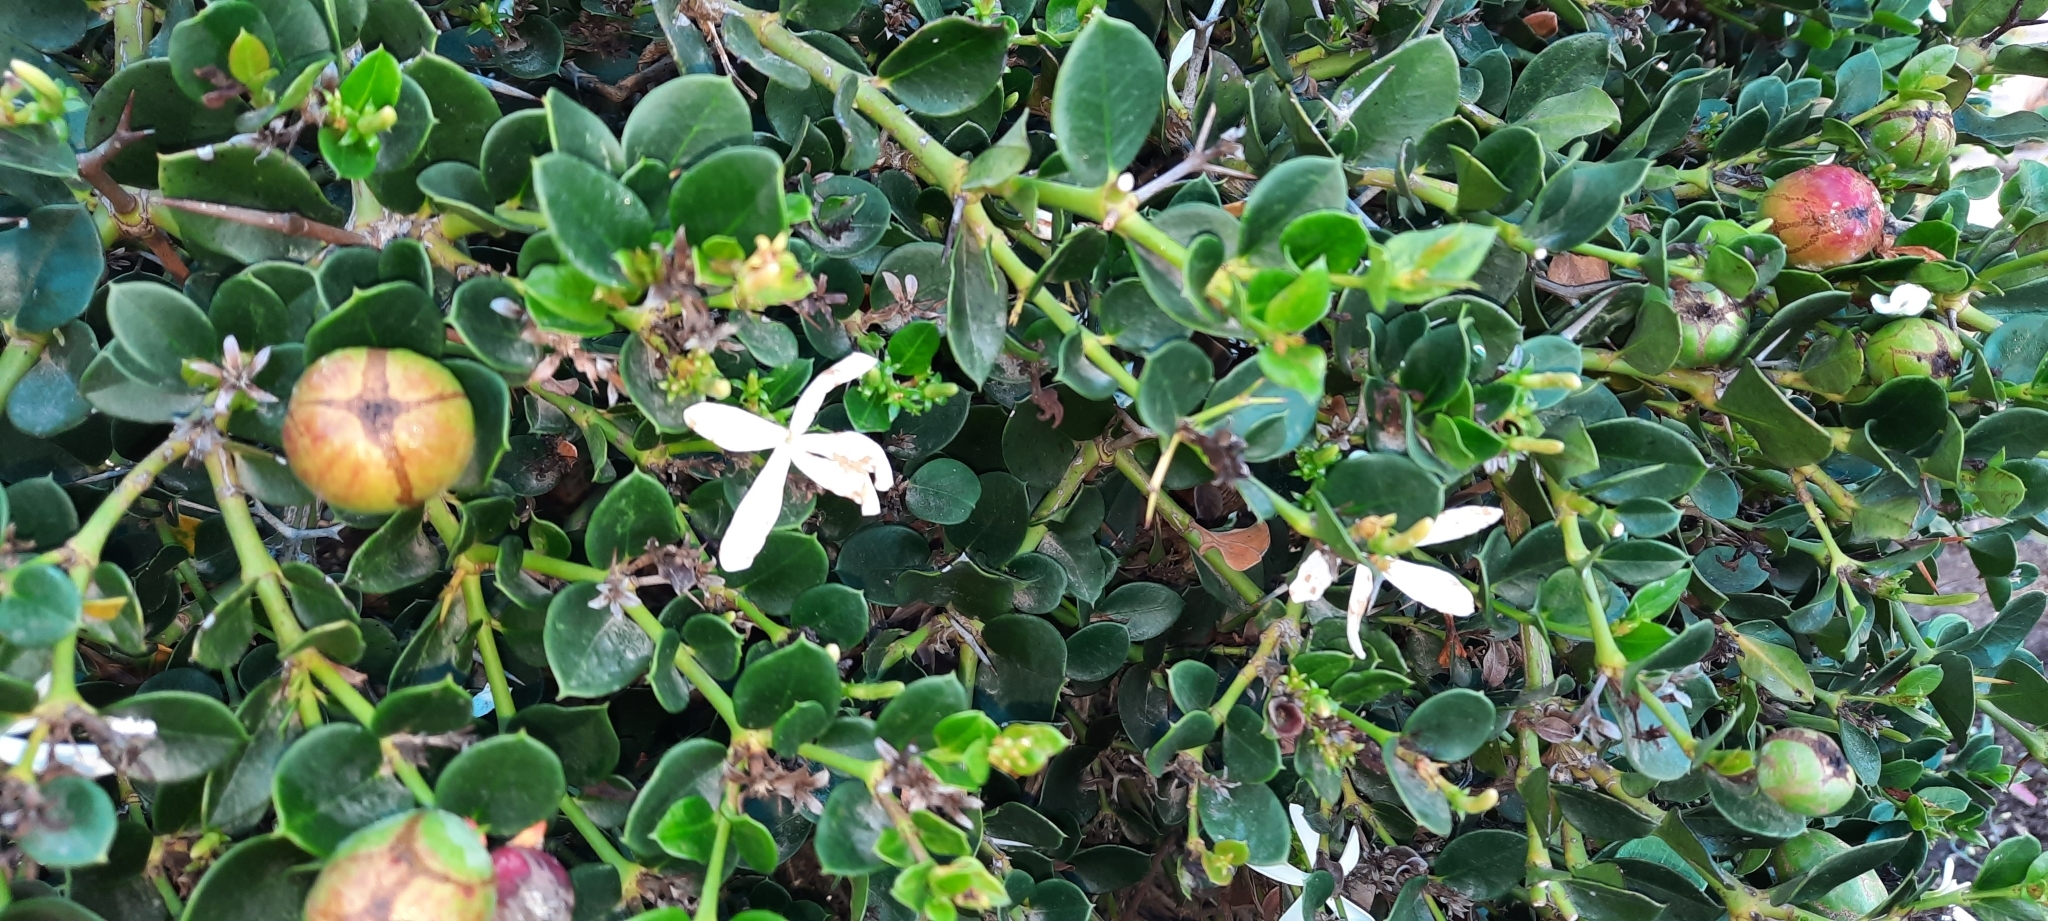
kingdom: Plantae
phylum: Tracheophyta
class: Magnoliopsida
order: Gentianales
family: Apocynaceae
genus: Carissa
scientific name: Carissa macrocarpa
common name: Natal plum
